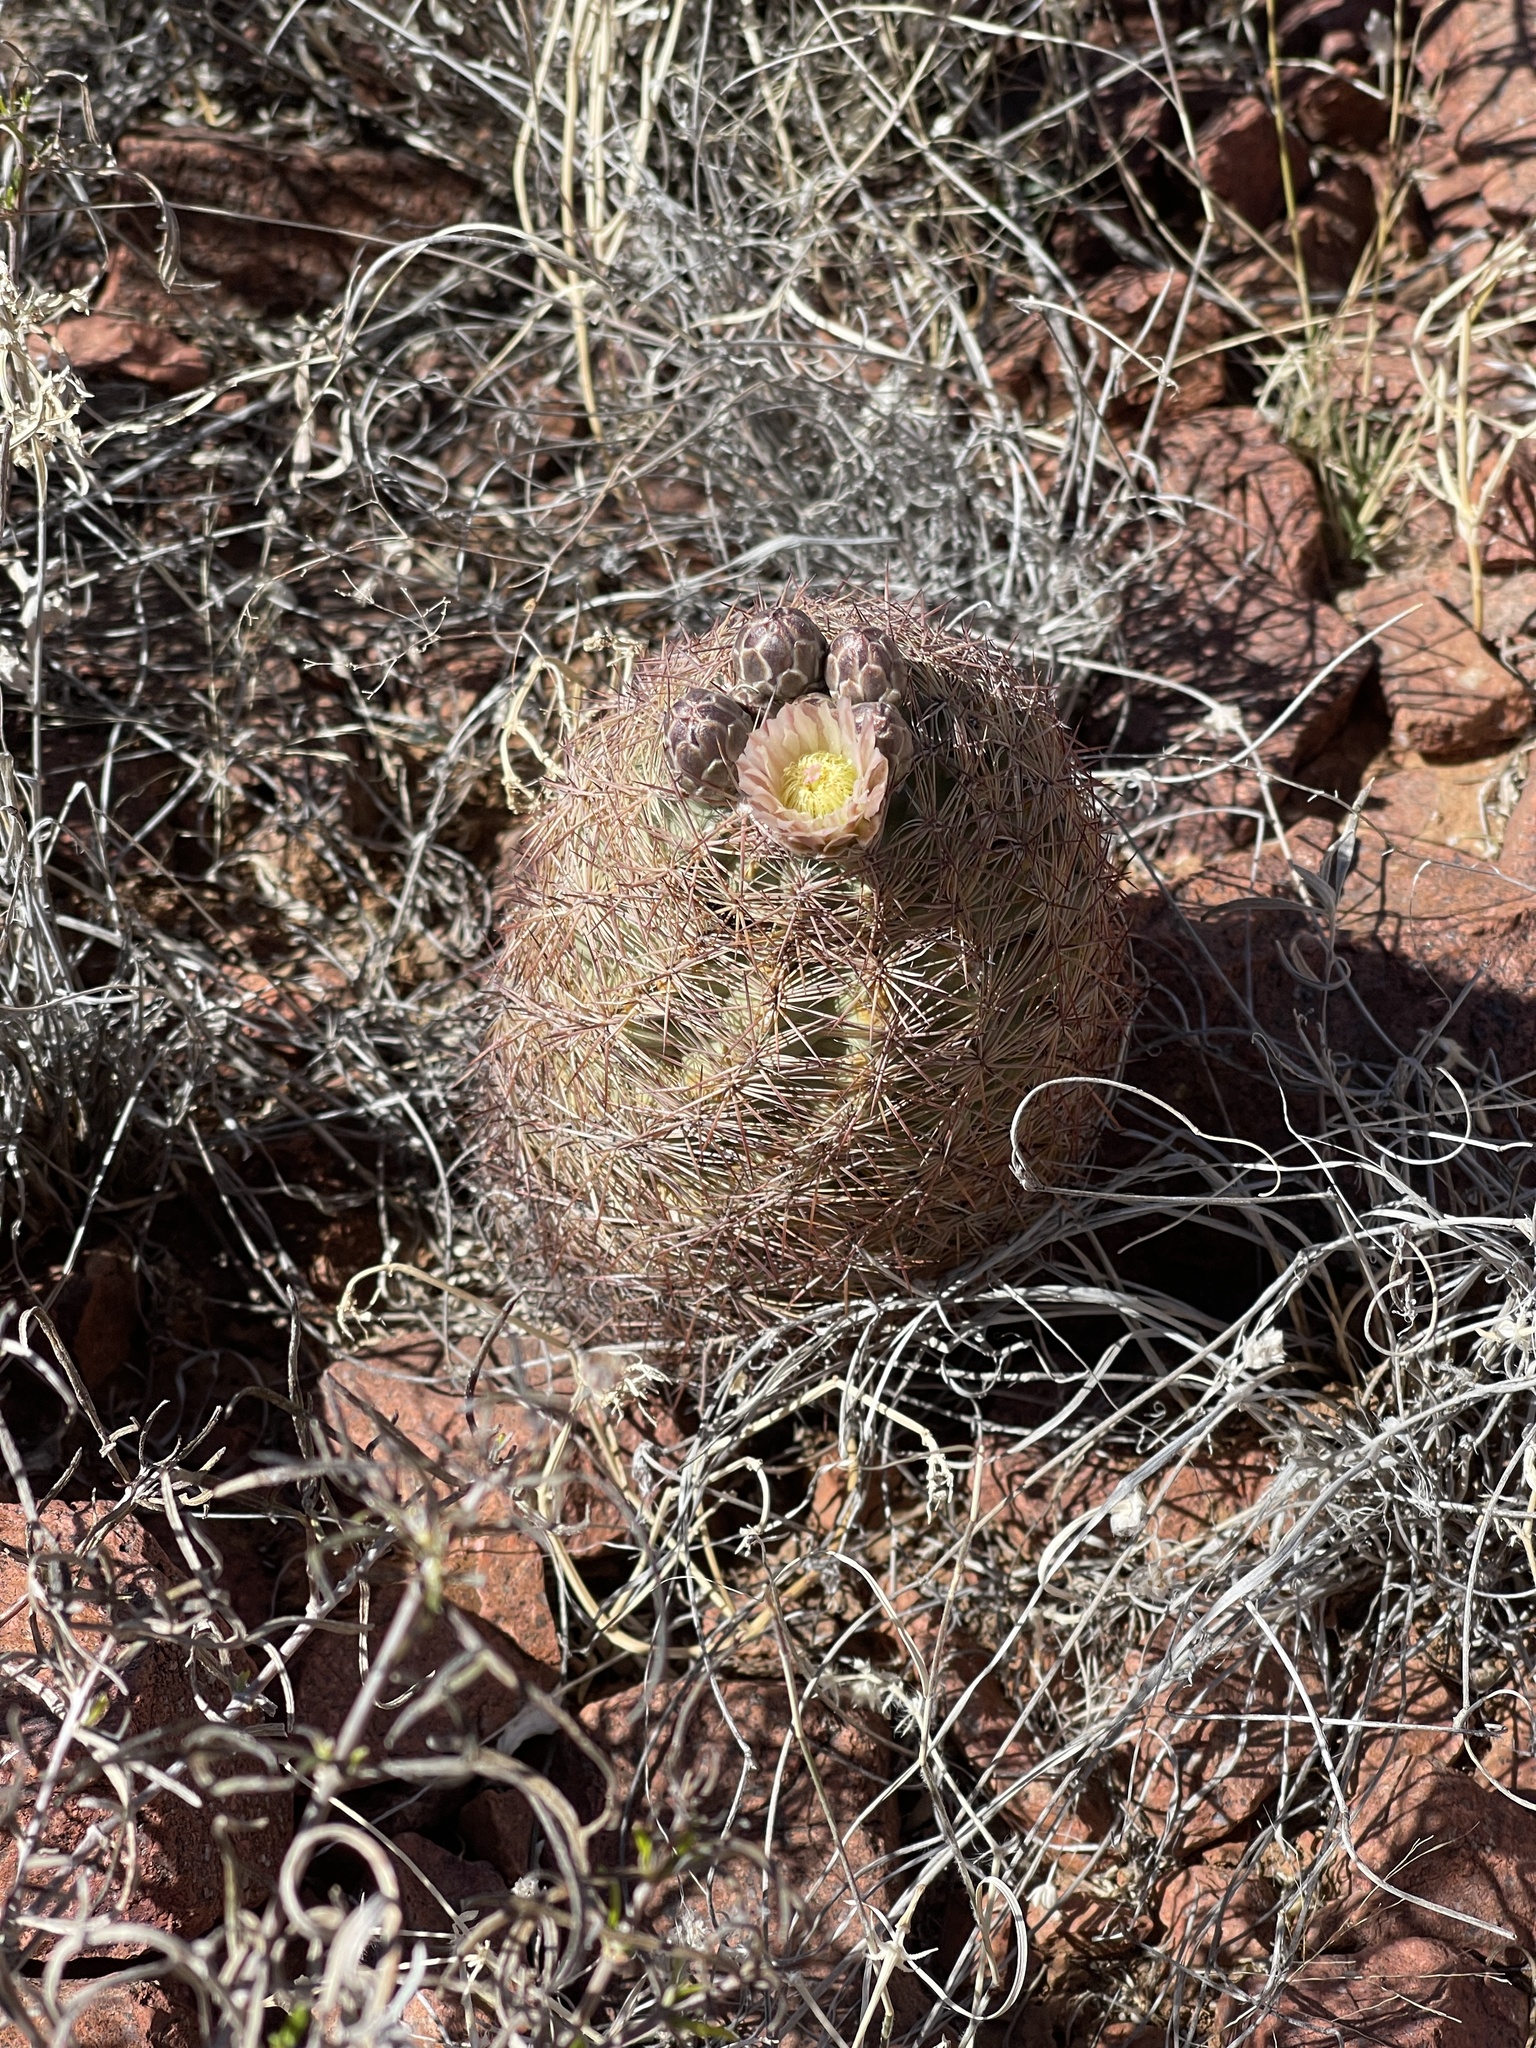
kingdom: Plantae
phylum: Tracheophyta
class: Magnoliopsida
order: Caryophyllales
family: Cactaceae
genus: Sclerocactus
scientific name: Sclerocactus intertextus
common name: White fish-hook cactus
